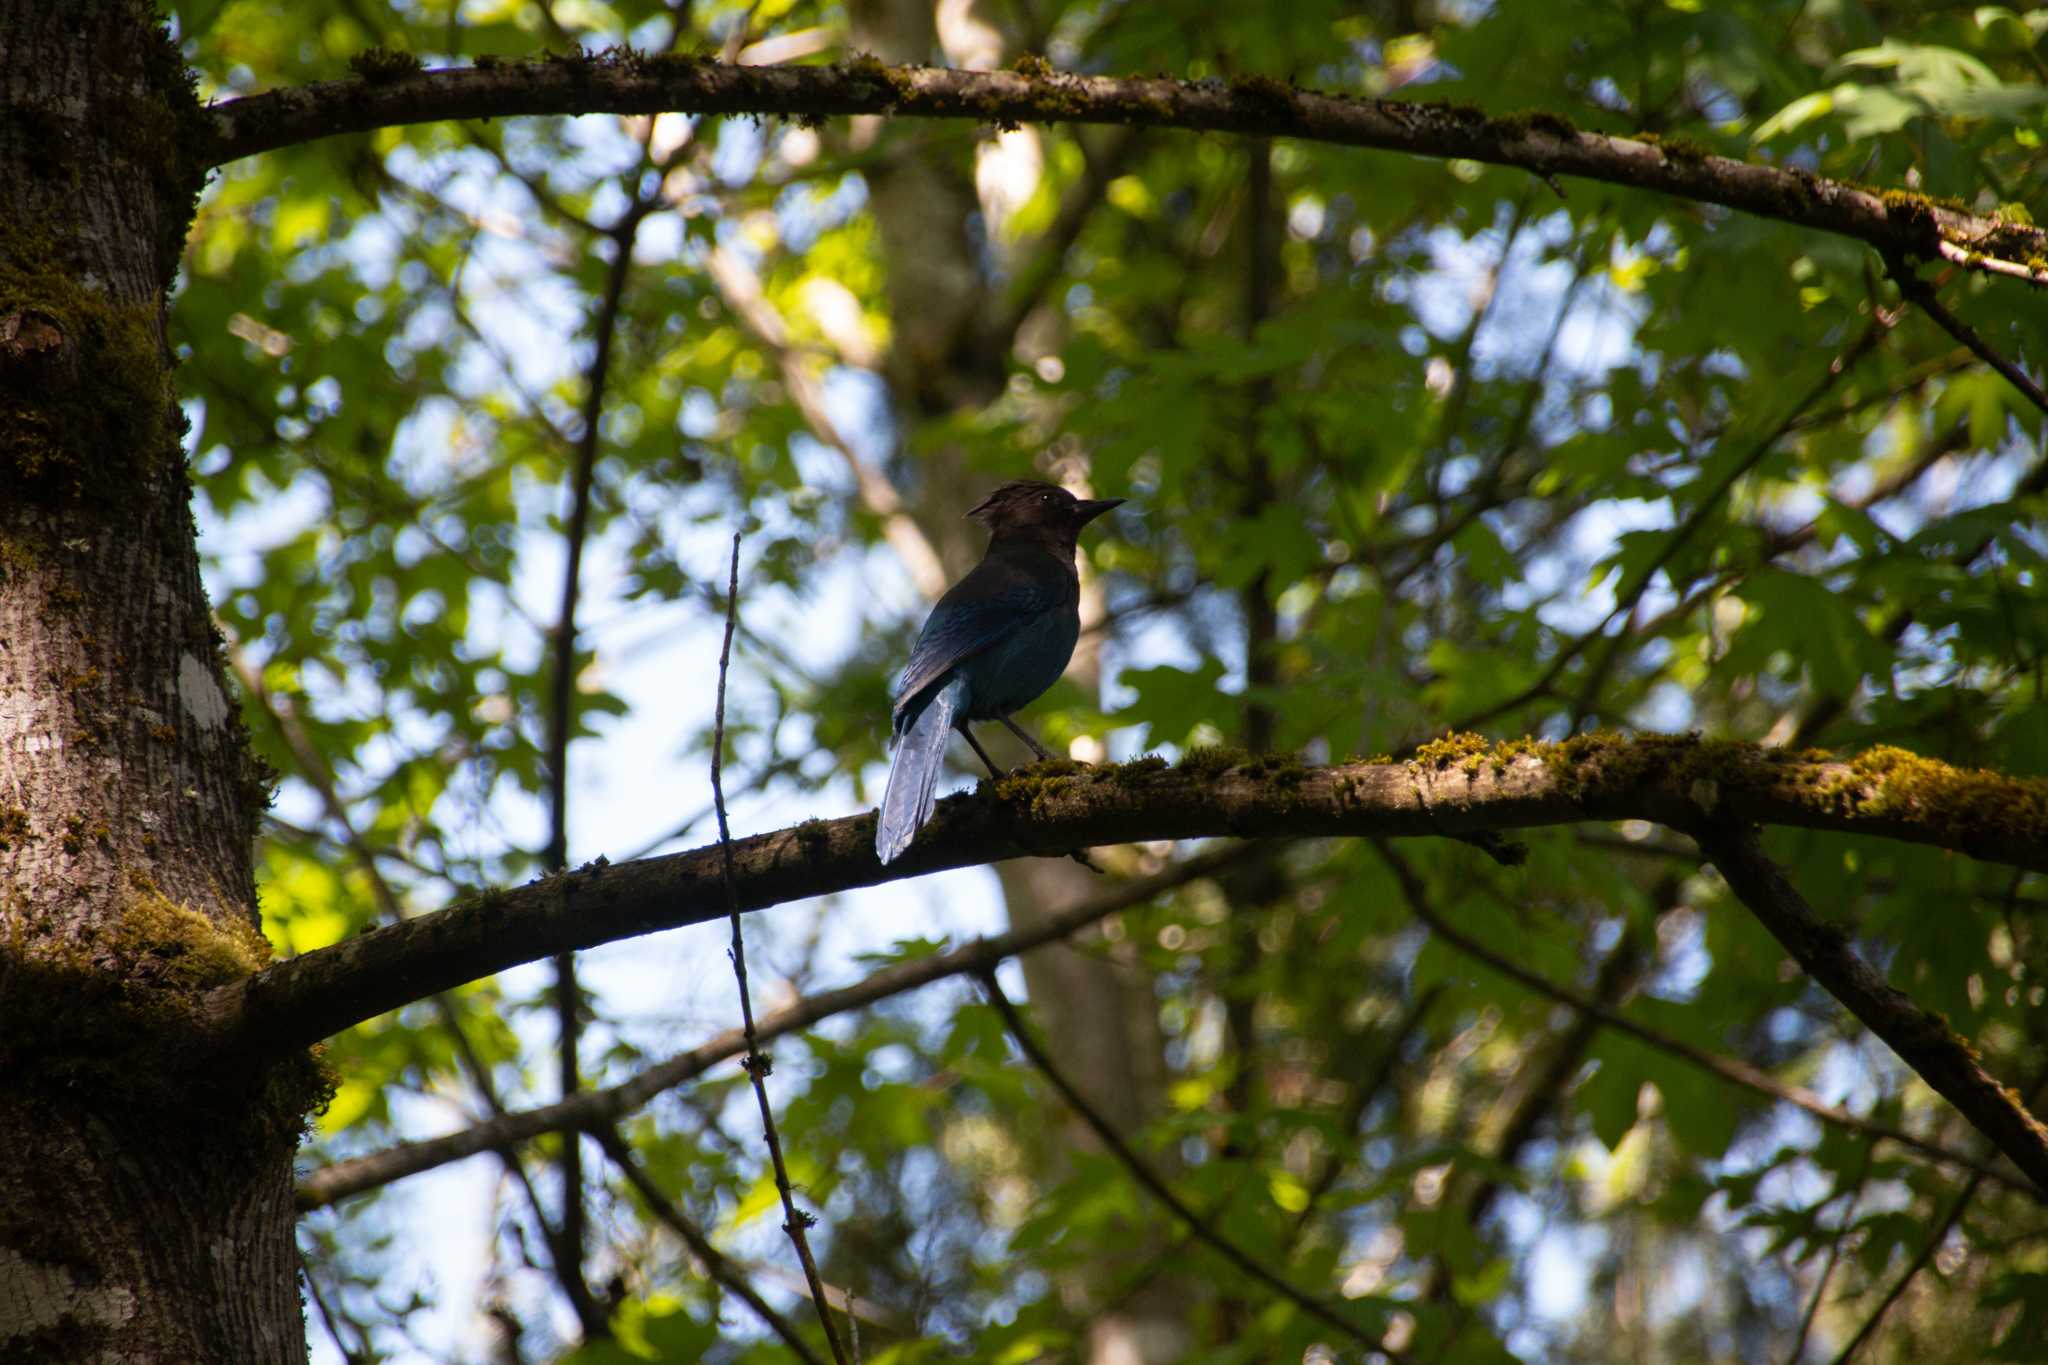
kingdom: Animalia
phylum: Chordata
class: Aves
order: Passeriformes
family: Corvidae
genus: Cyanocitta
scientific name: Cyanocitta stelleri
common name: Steller's jay
